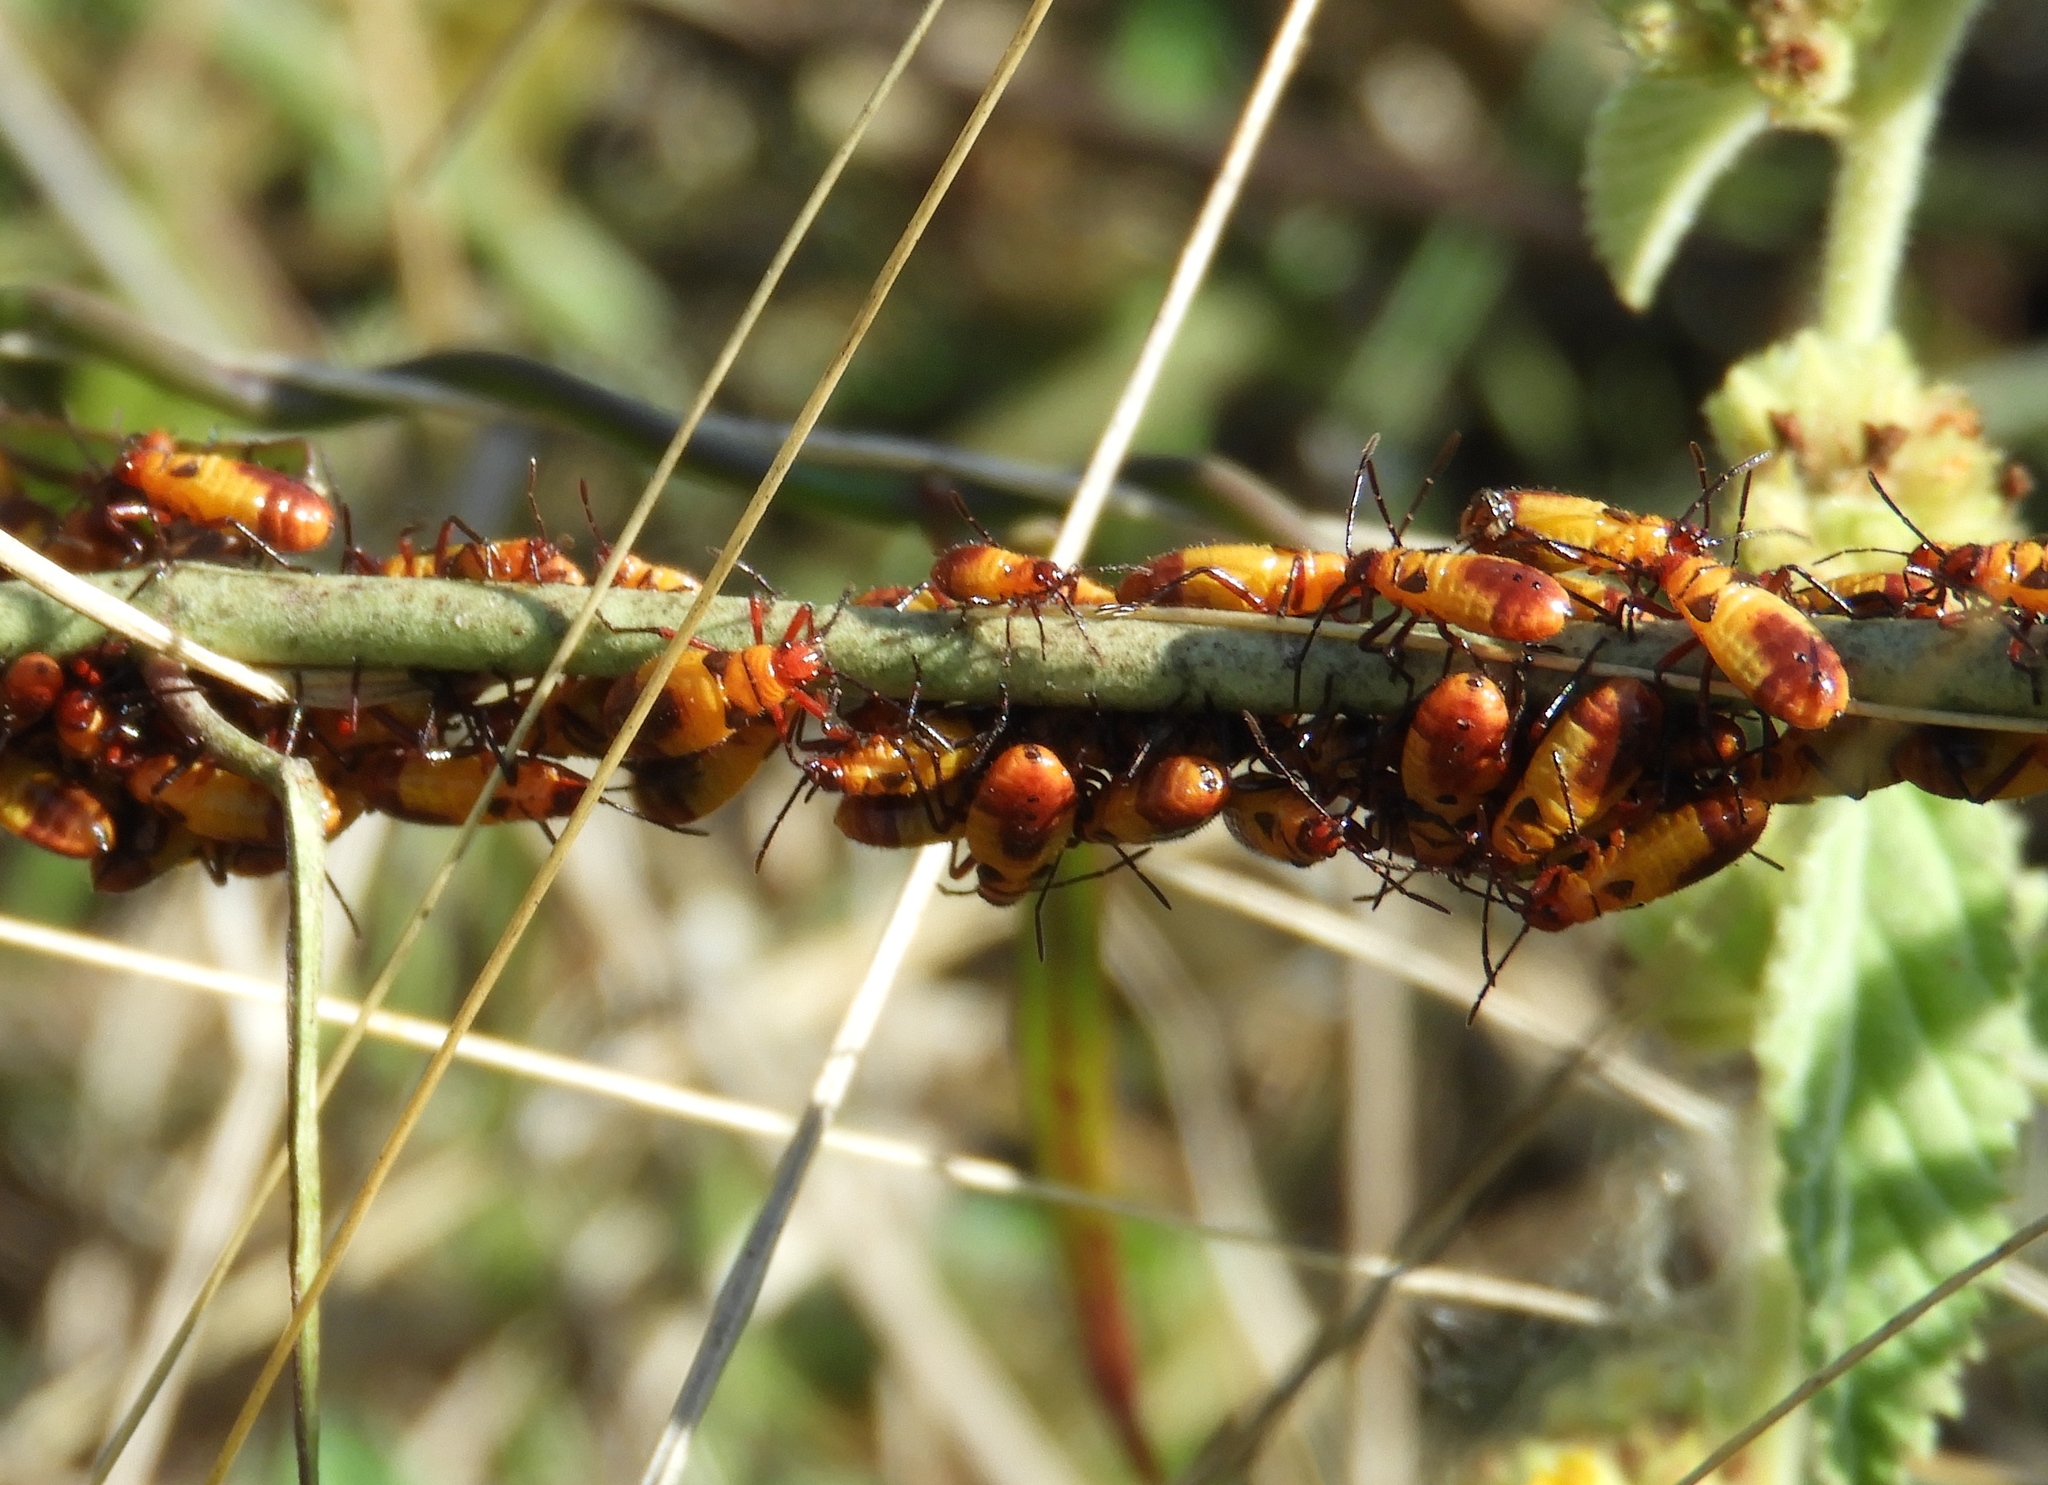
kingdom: Animalia
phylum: Arthropoda
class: Insecta
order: Hemiptera
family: Lygaeidae
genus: Oncopeltus
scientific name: Oncopeltus guttaloides
